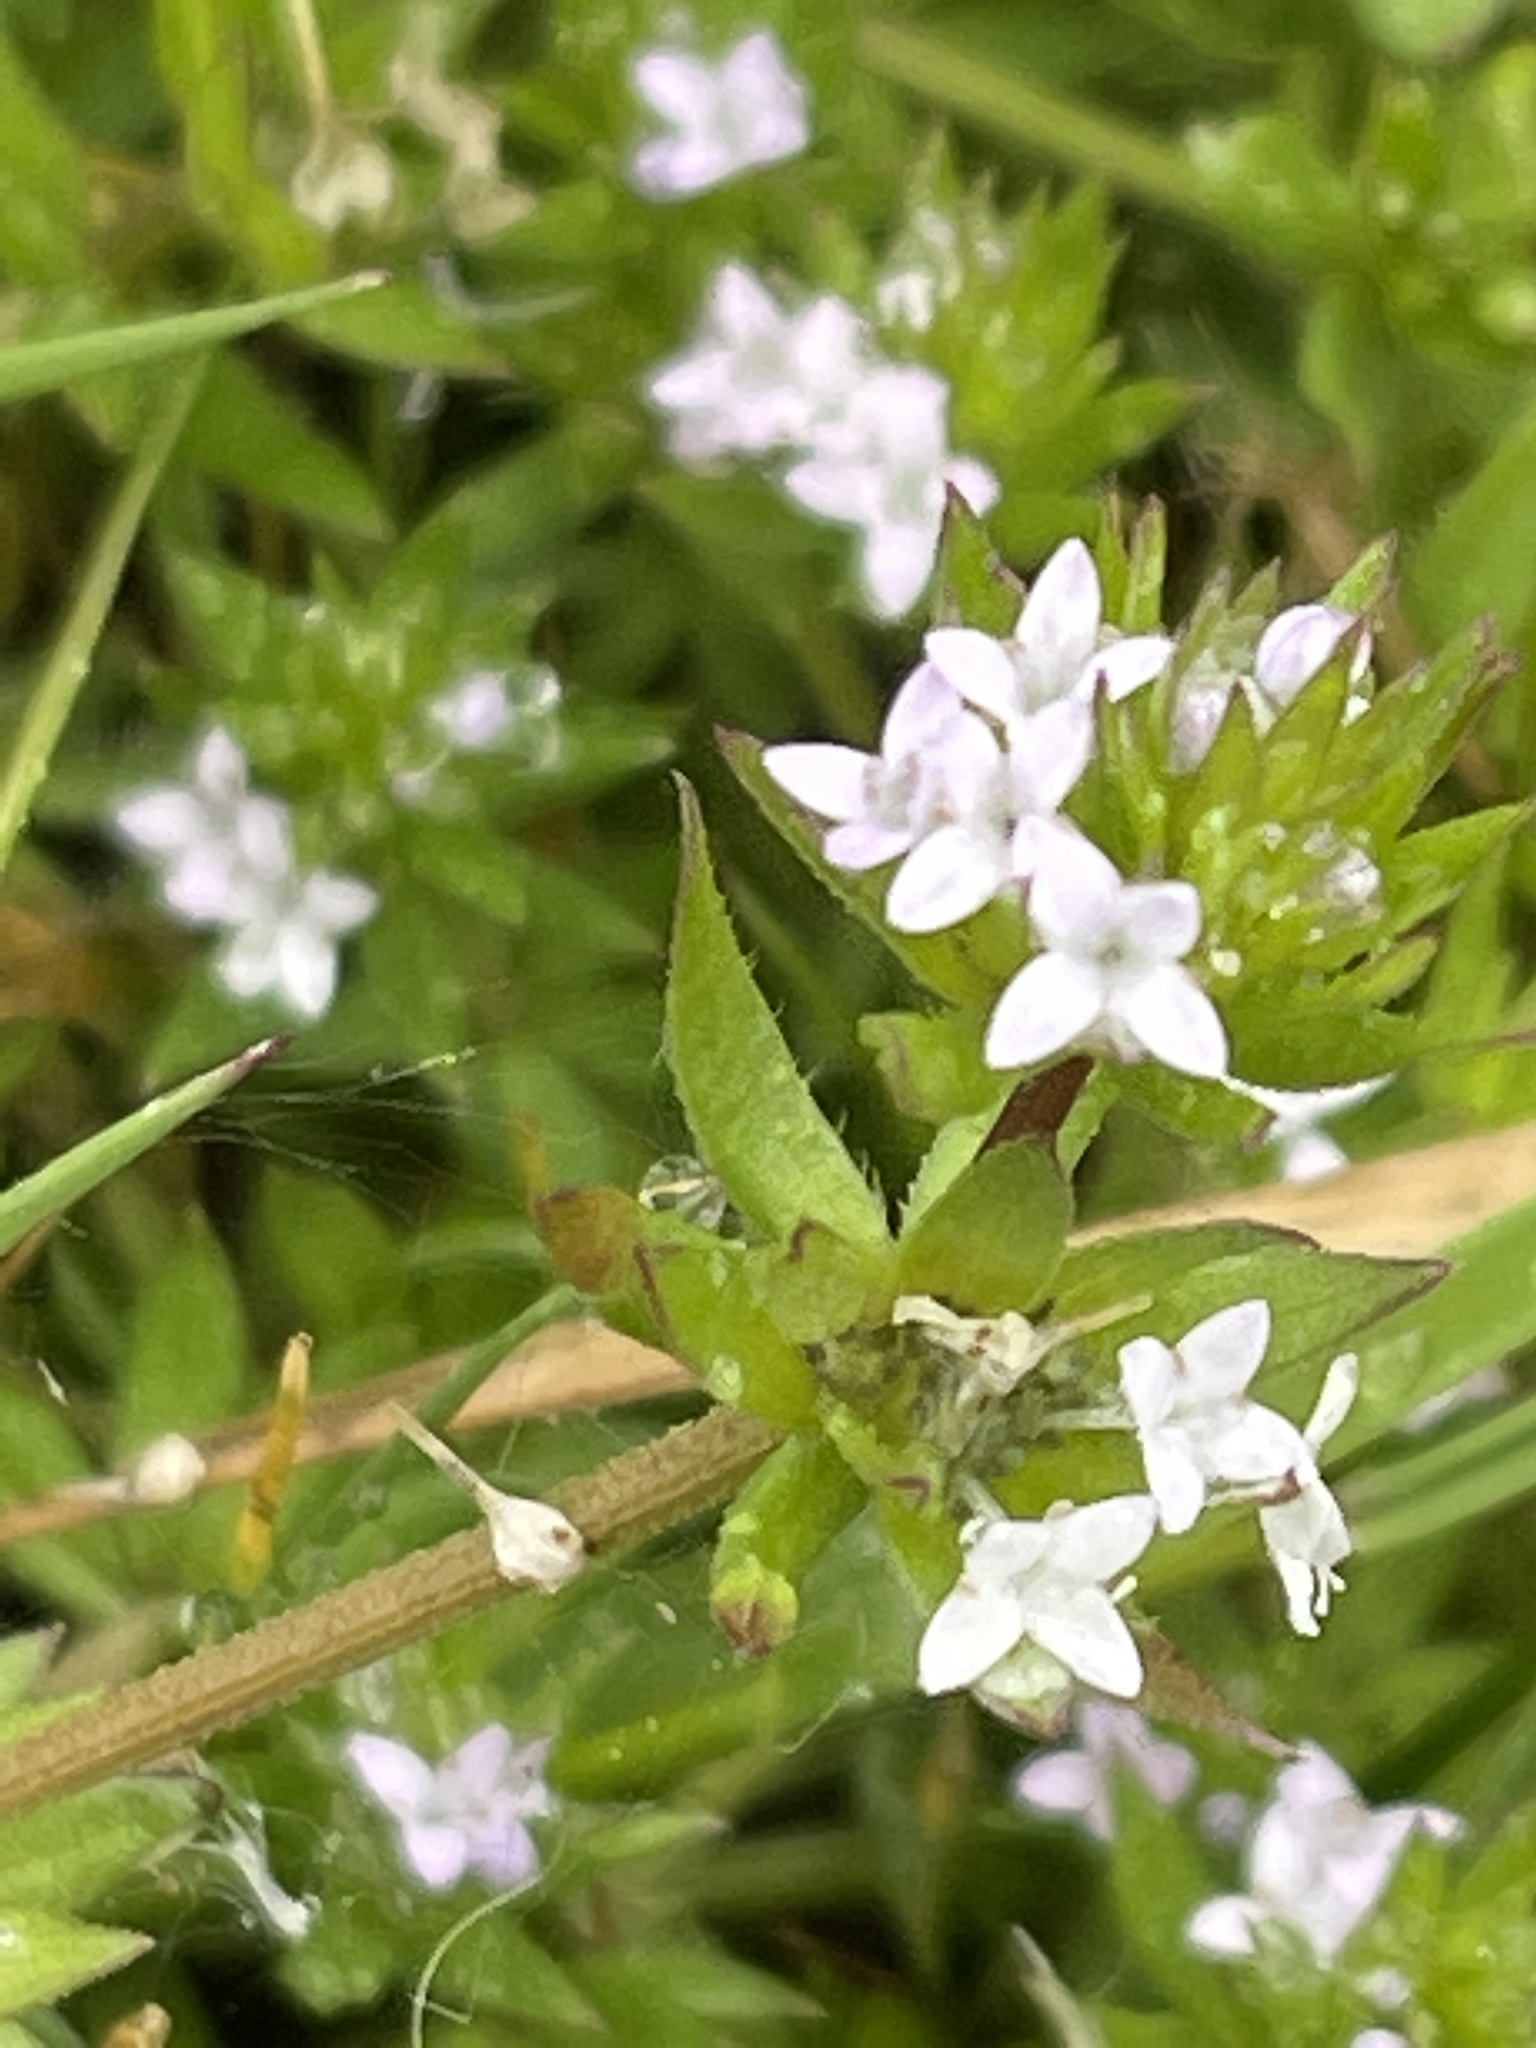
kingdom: Plantae
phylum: Tracheophyta
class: Magnoliopsida
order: Gentianales
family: Rubiaceae
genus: Sherardia
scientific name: Sherardia arvensis
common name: Field madder
